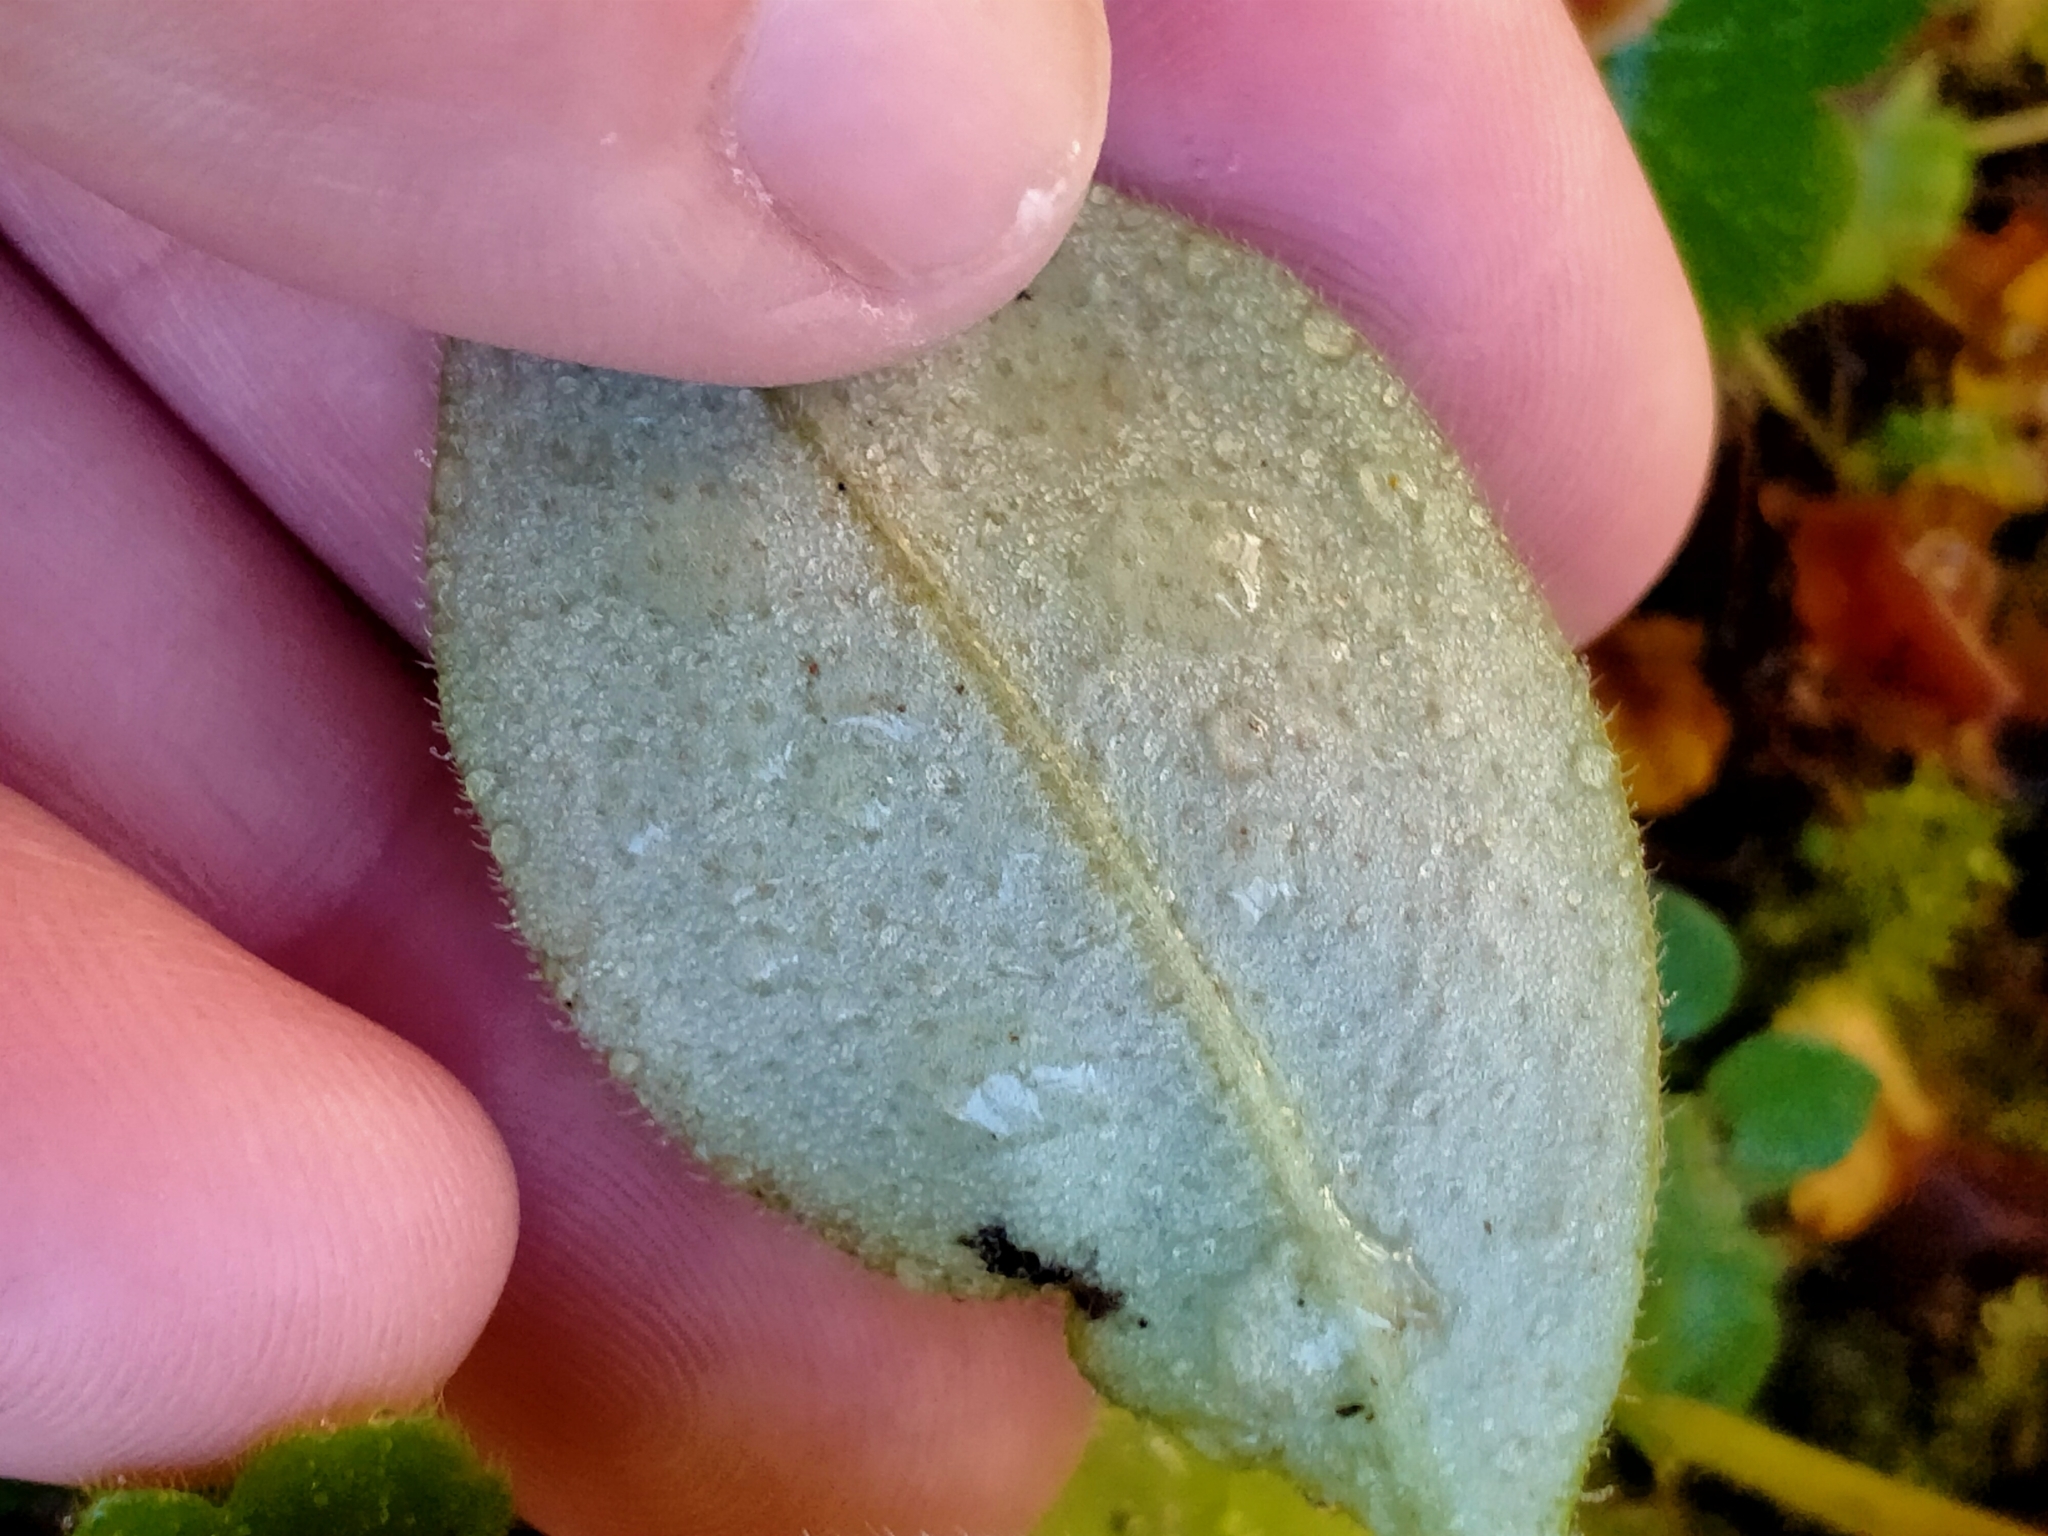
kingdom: Plantae
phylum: Tracheophyta
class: Magnoliopsida
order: Boraginales
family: Boraginaceae
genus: Myosotis
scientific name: Myosotis forsteri
